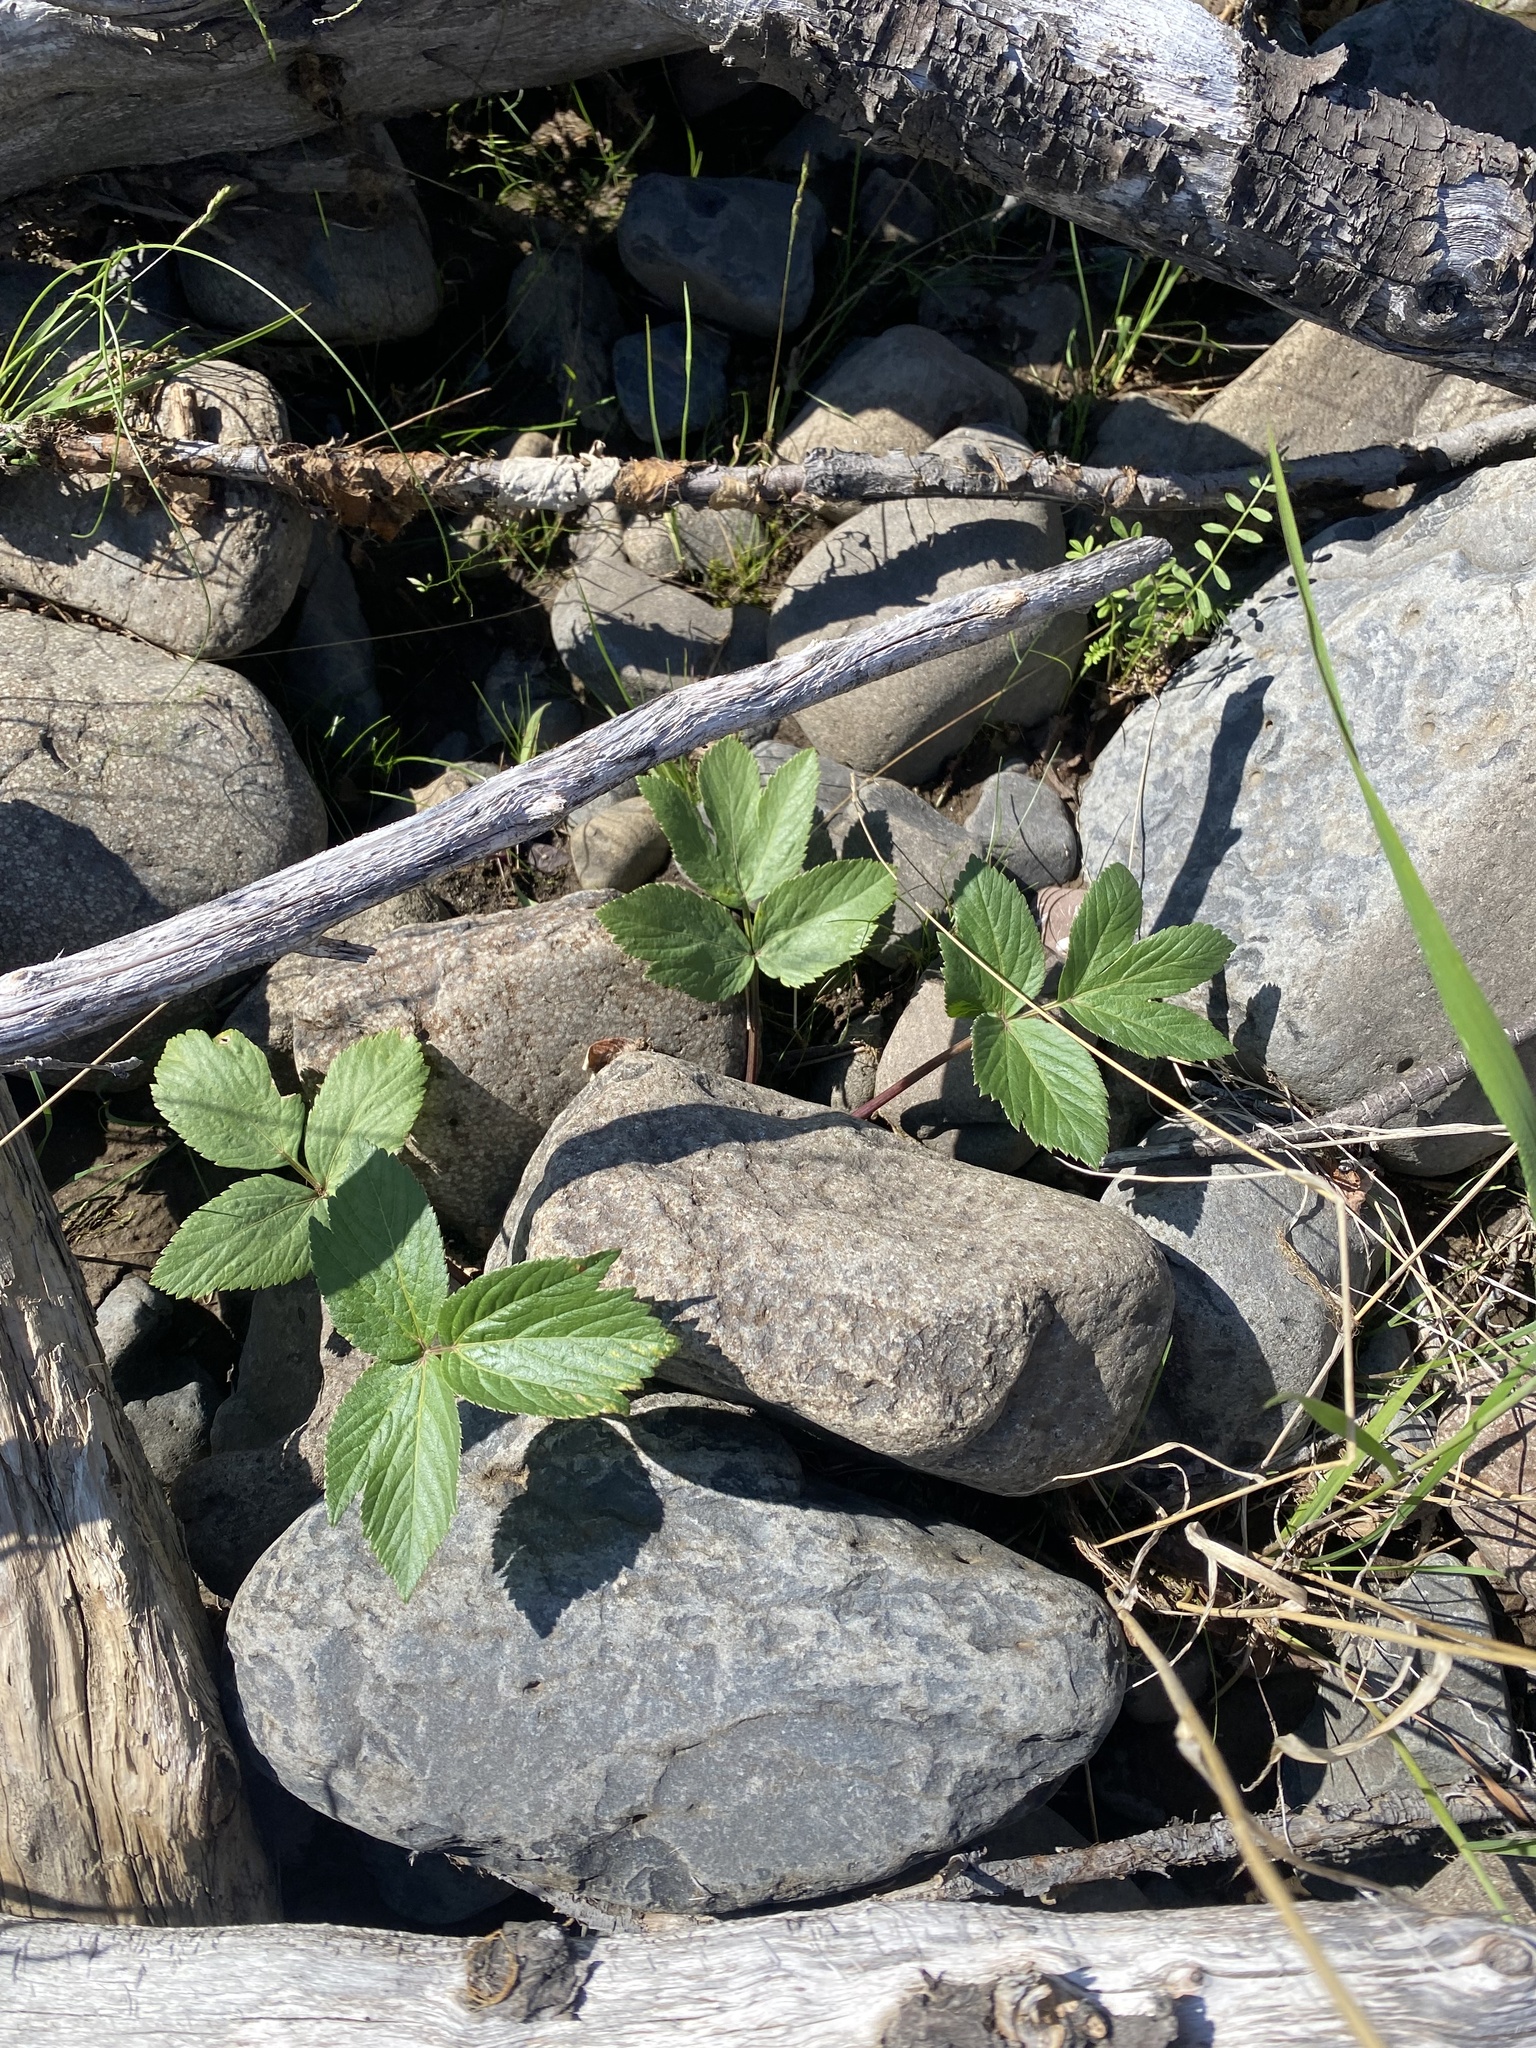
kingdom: Plantae
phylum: Tracheophyta
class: Magnoliopsida
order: Apiales
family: Apiaceae
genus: Angelica
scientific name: Angelica decurrens
